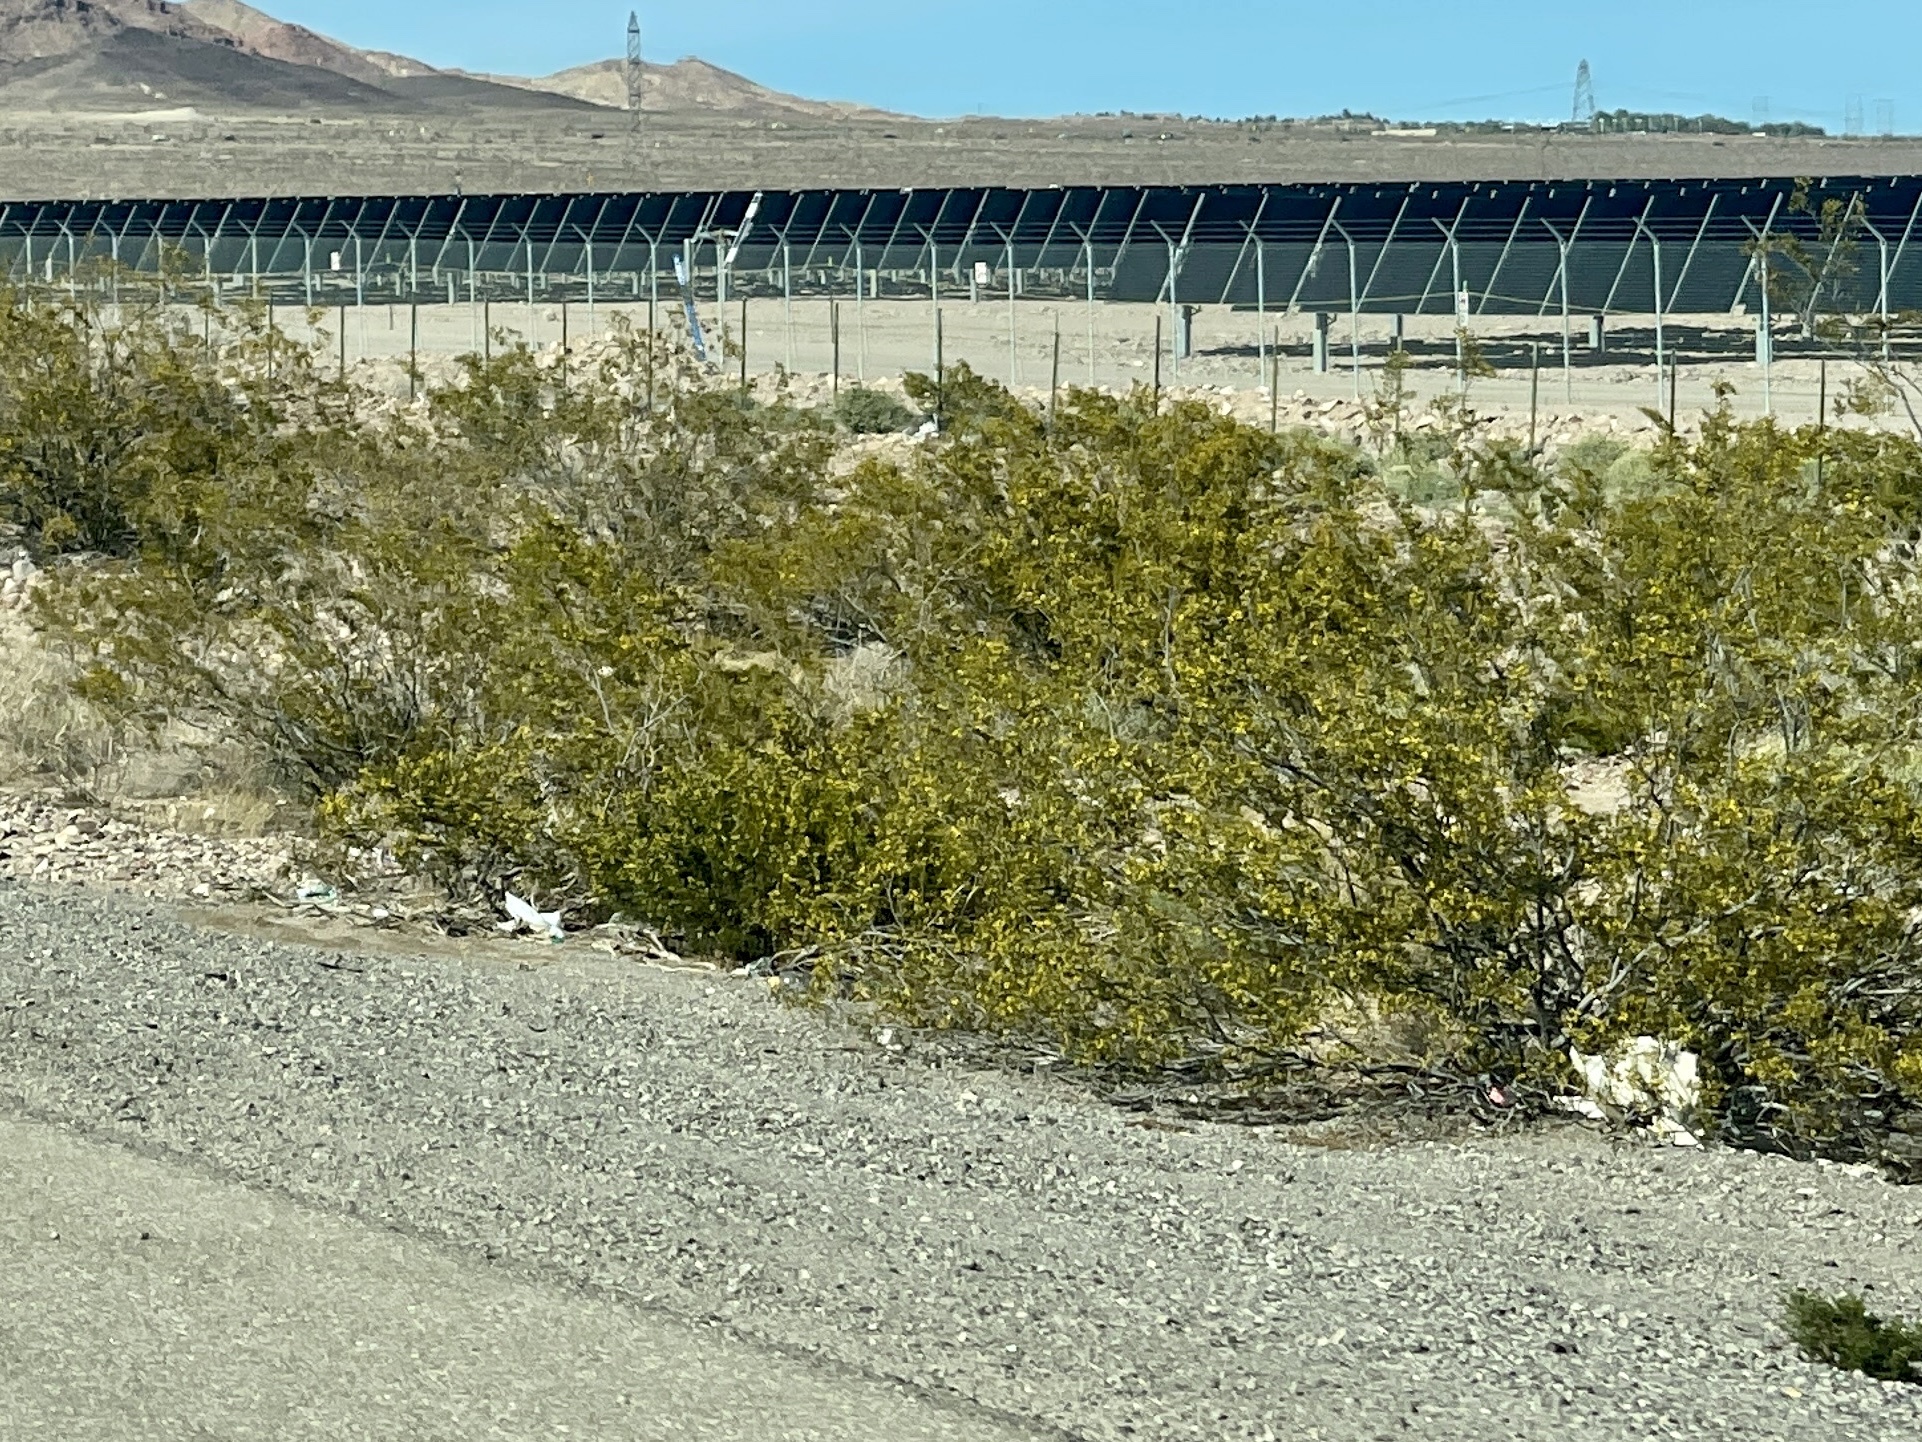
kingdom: Plantae
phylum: Tracheophyta
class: Magnoliopsida
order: Zygophyllales
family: Zygophyllaceae
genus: Larrea
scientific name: Larrea tridentata
